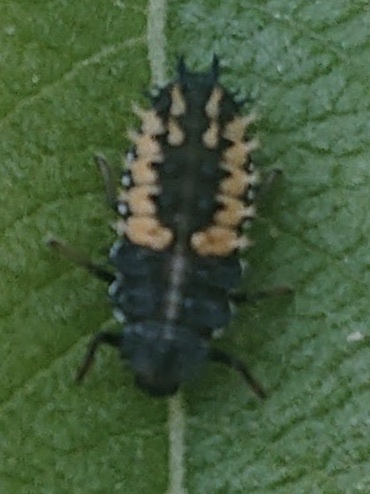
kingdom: Animalia
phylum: Arthropoda
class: Insecta
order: Coleoptera
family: Coccinellidae
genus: Harmonia
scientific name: Harmonia axyridis
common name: Harlequin ladybird
